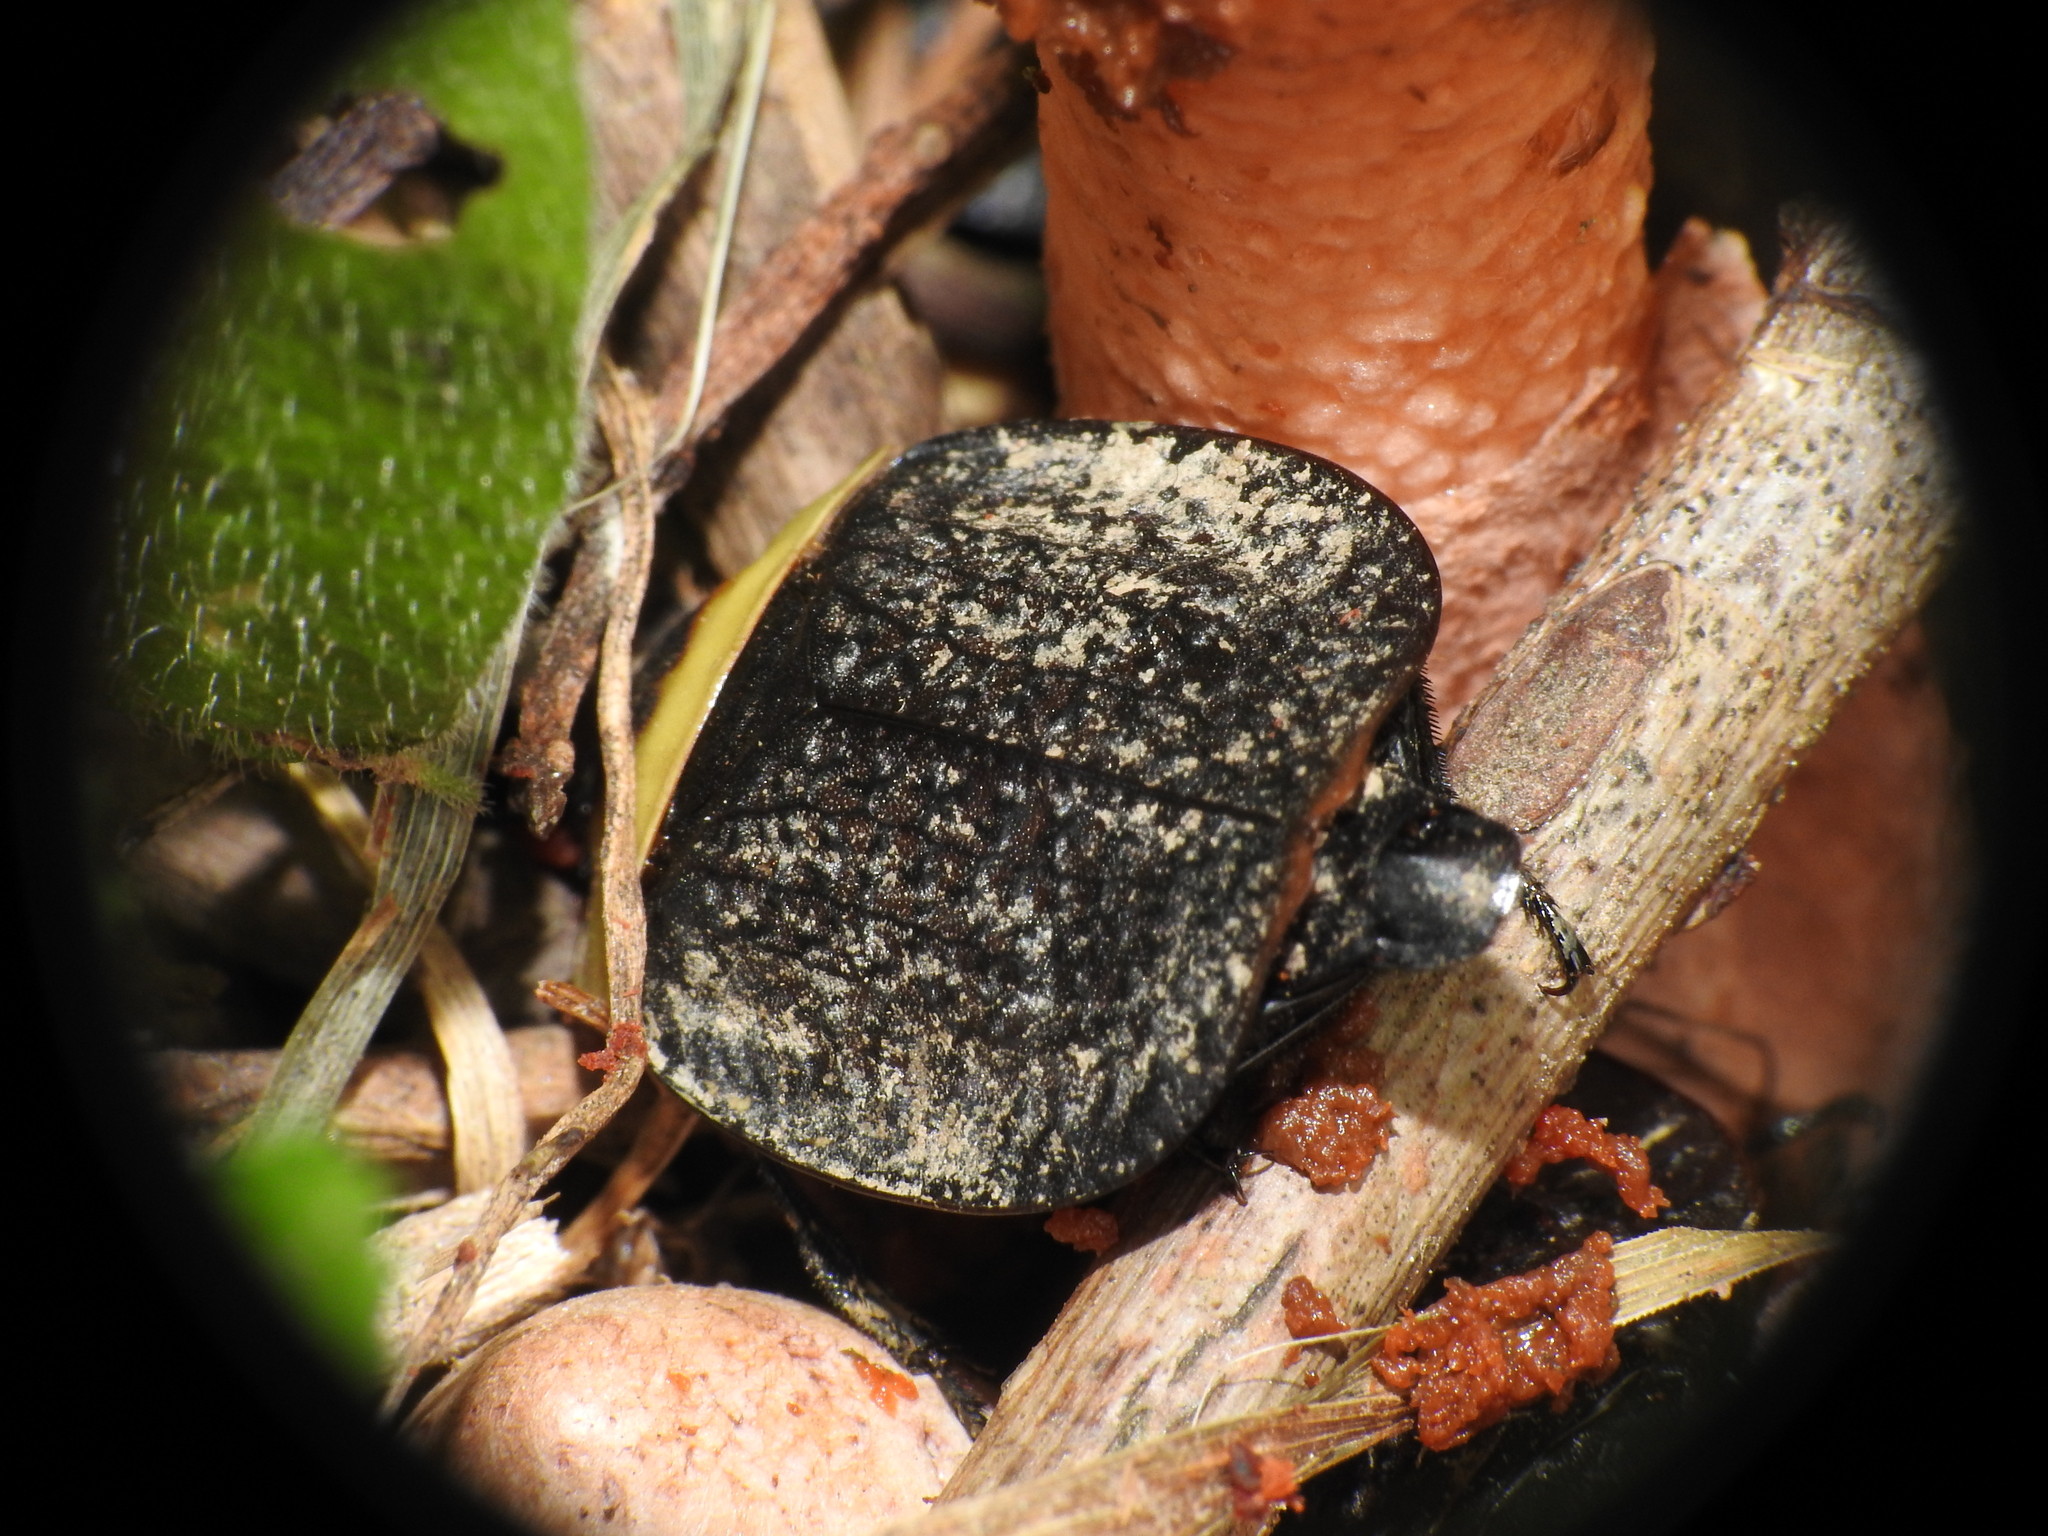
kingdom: Animalia
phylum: Arthropoda
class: Insecta
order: Coleoptera
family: Staphylinidae
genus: Necrophila
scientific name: Necrophila americana
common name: American carrion beetle
